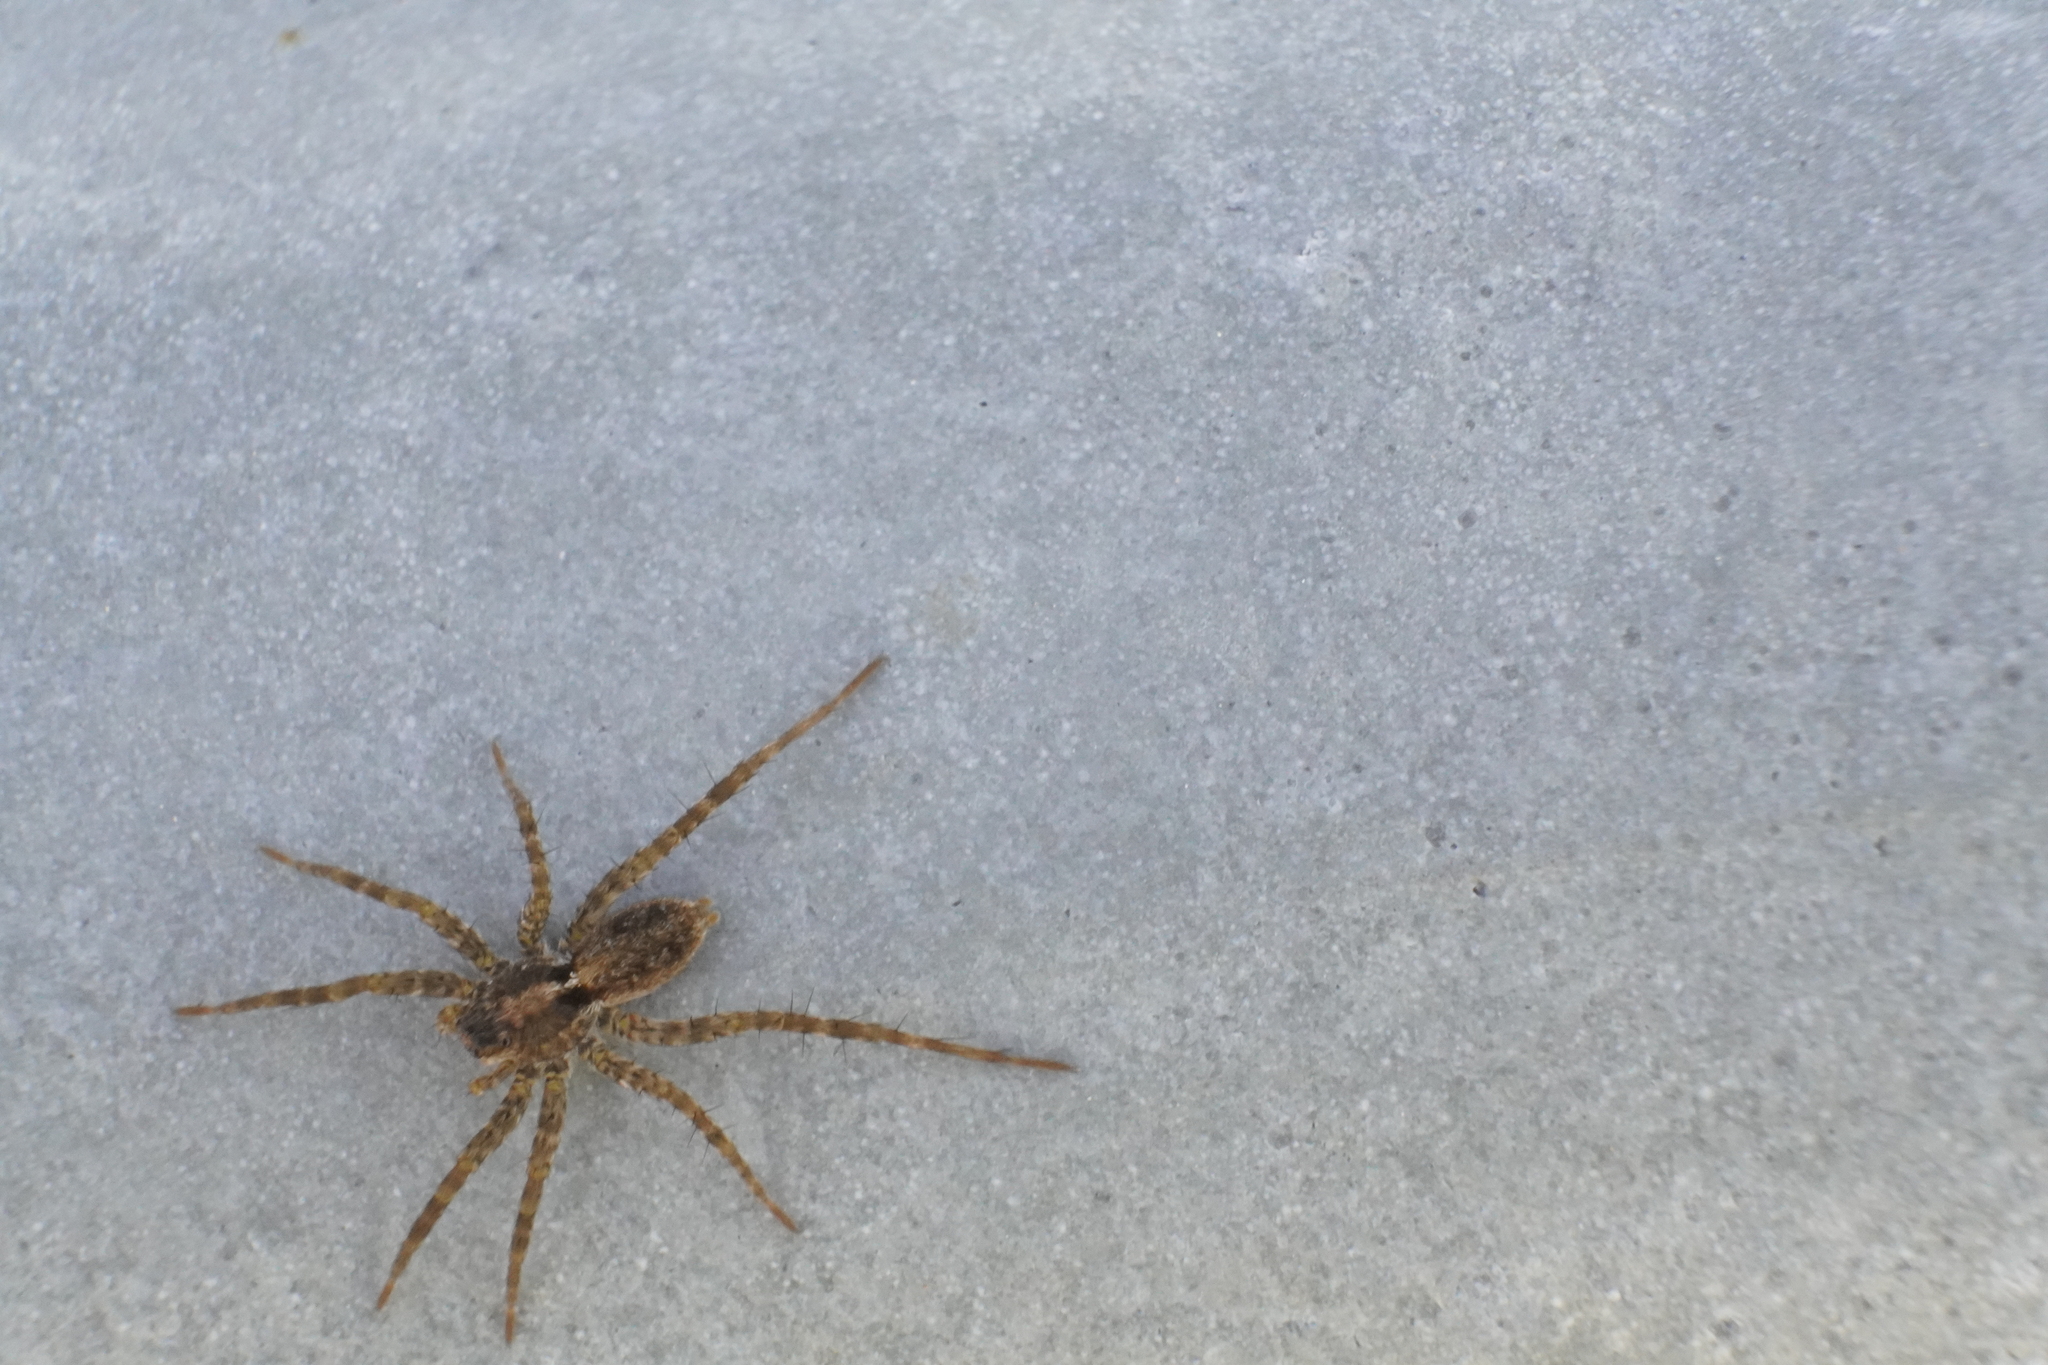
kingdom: Animalia
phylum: Arthropoda
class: Arachnida
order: Araneae
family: Lycosidae
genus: Pardosa
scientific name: Pardosa milvina
